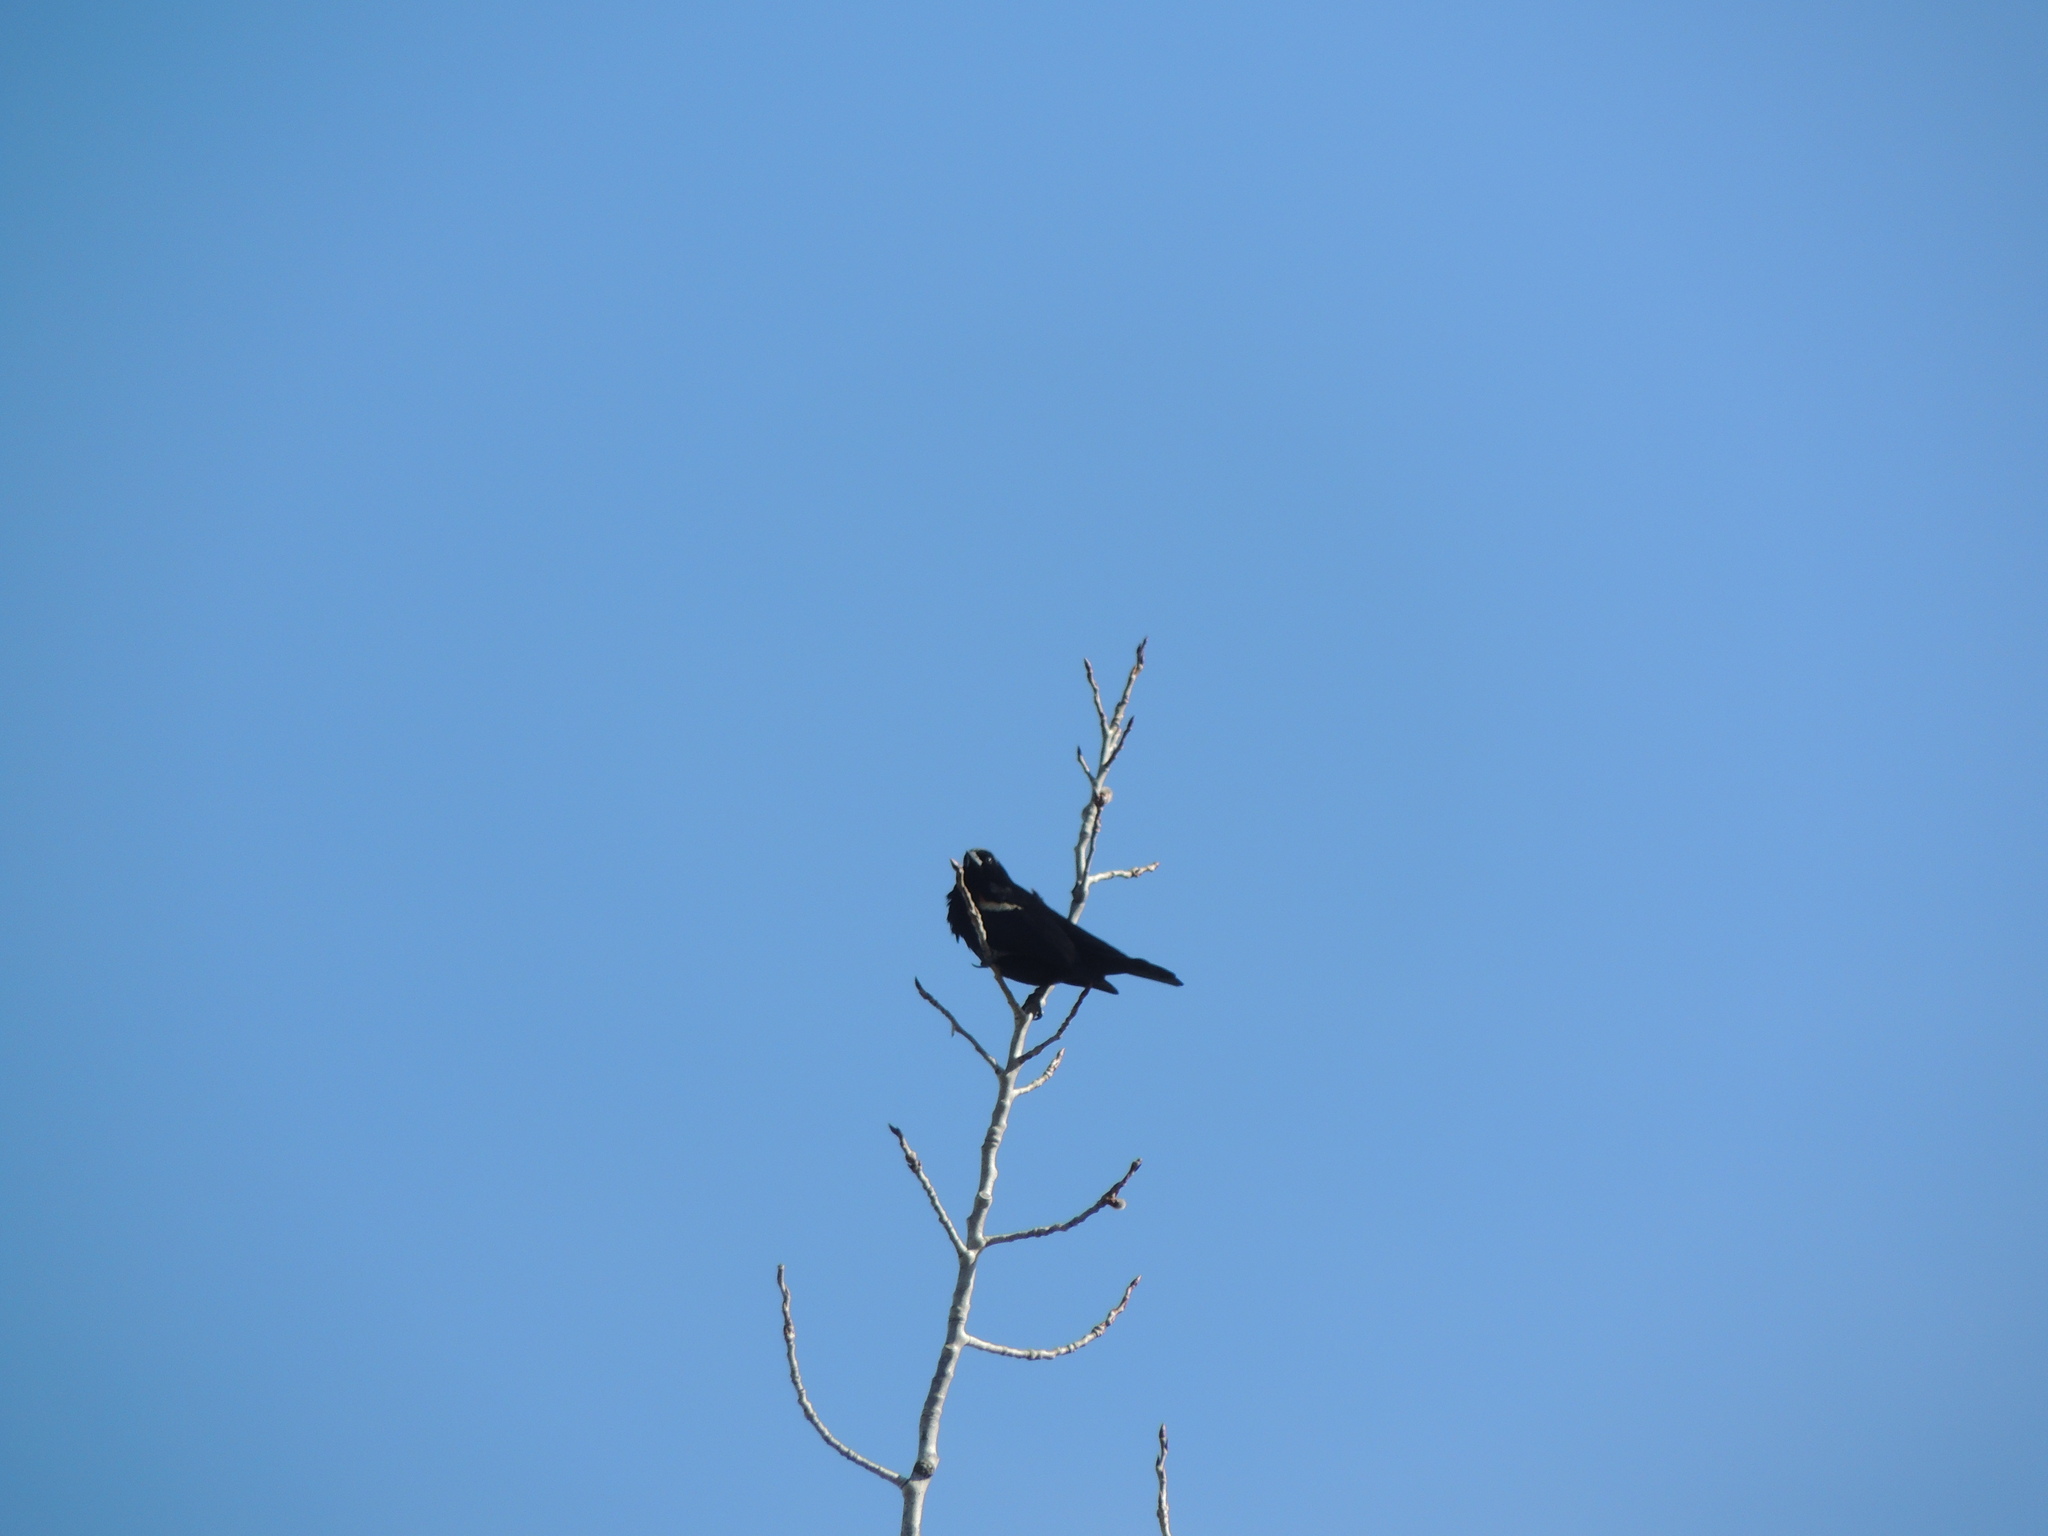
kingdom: Animalia
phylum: Chordata
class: Aves
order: Passeriformes
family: Icteridae
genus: Agelaius
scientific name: Agelaius phoeniceus
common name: Red-winged blackbird
